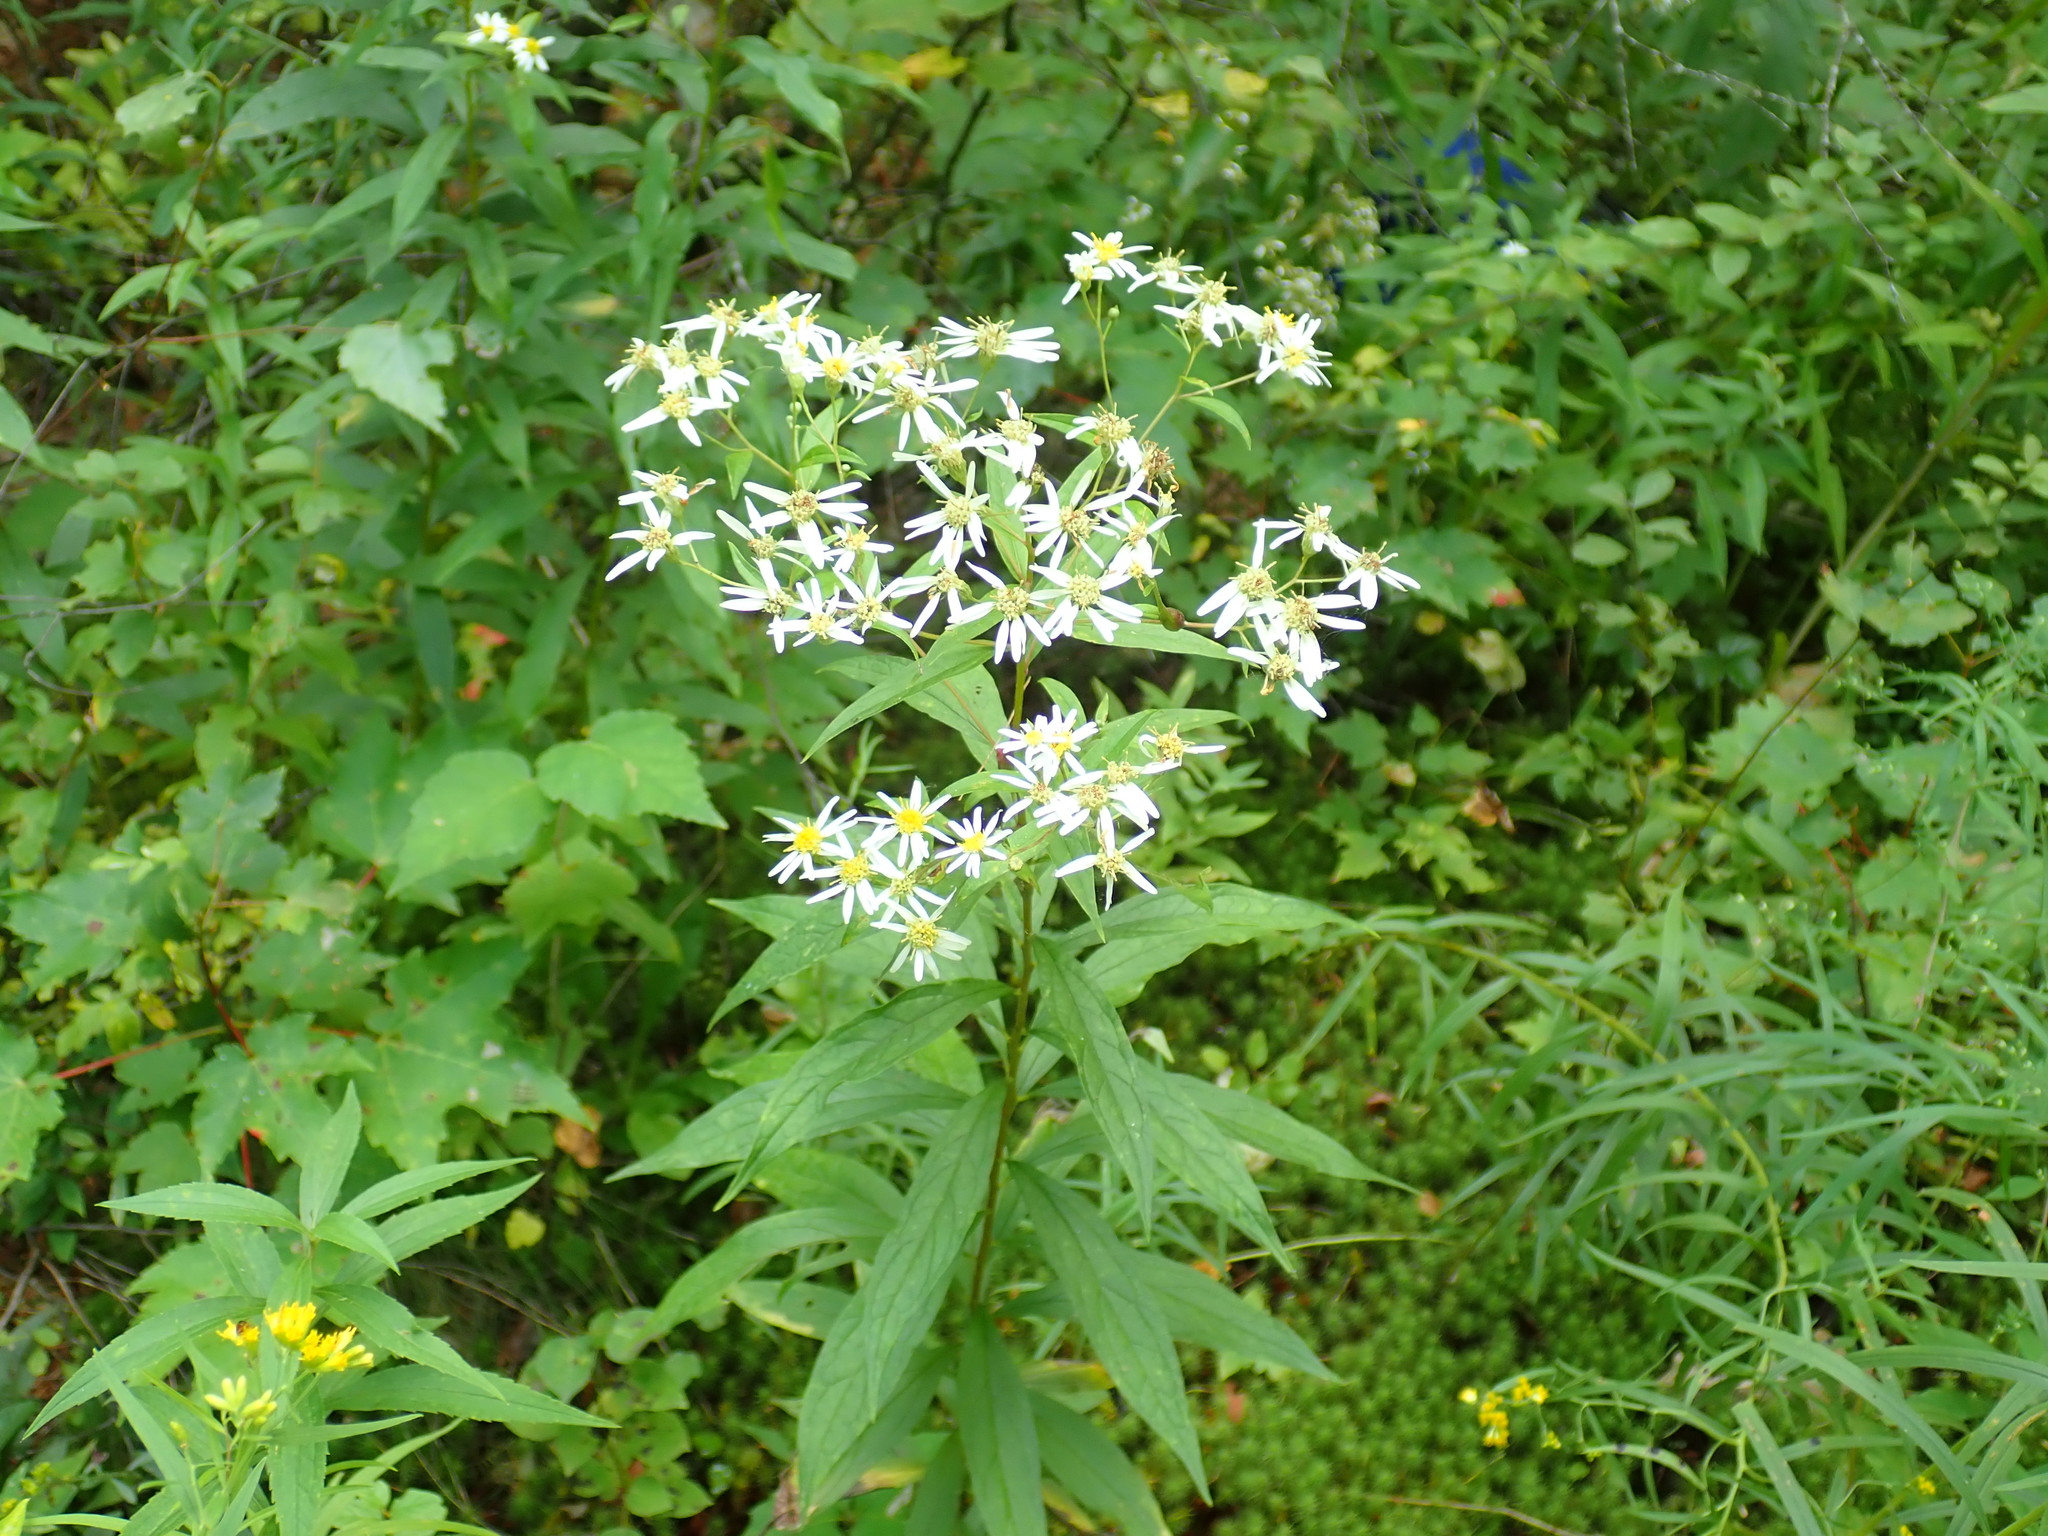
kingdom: Plantae
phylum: Tracheophyta
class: Magnoliopsida
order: Asterales
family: Asteraceae
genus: Doellingeria
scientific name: Doellingeria umbellata
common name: Flat-top white aster
